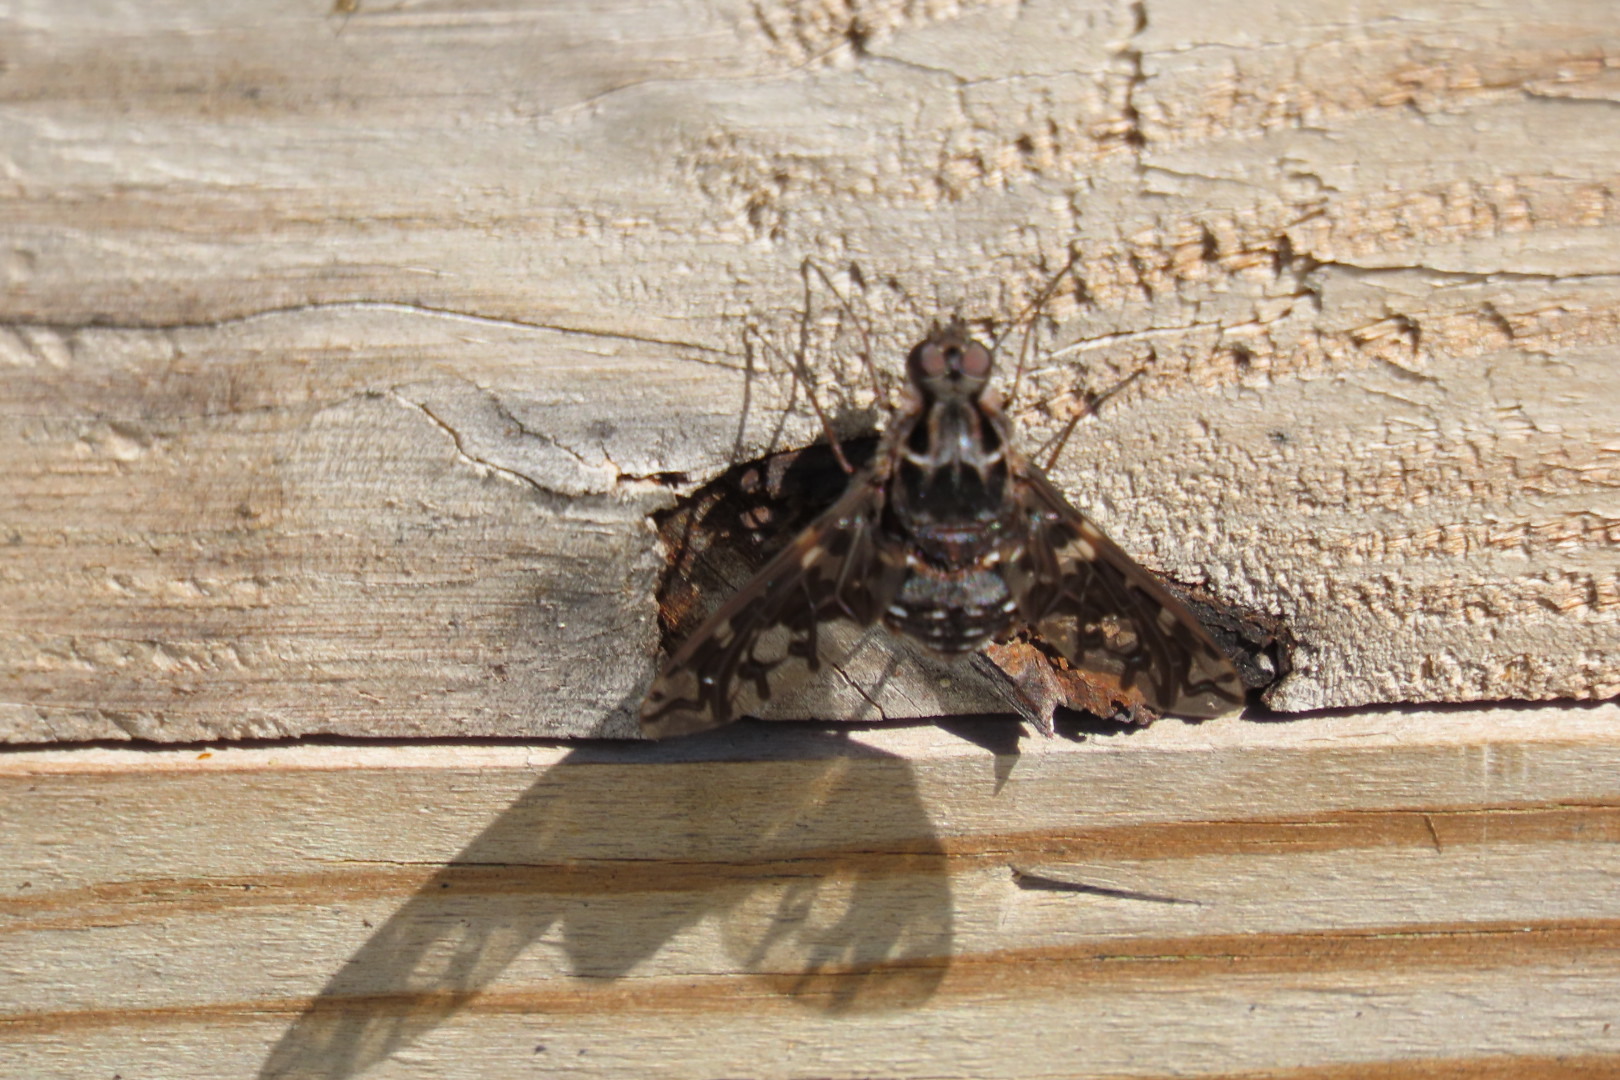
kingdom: Animalia
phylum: Arthropoda
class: Insecta
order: Diptera
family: Bombyliidae
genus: Xenox
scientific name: Xenox tigrinus
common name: Tiger bee fly
